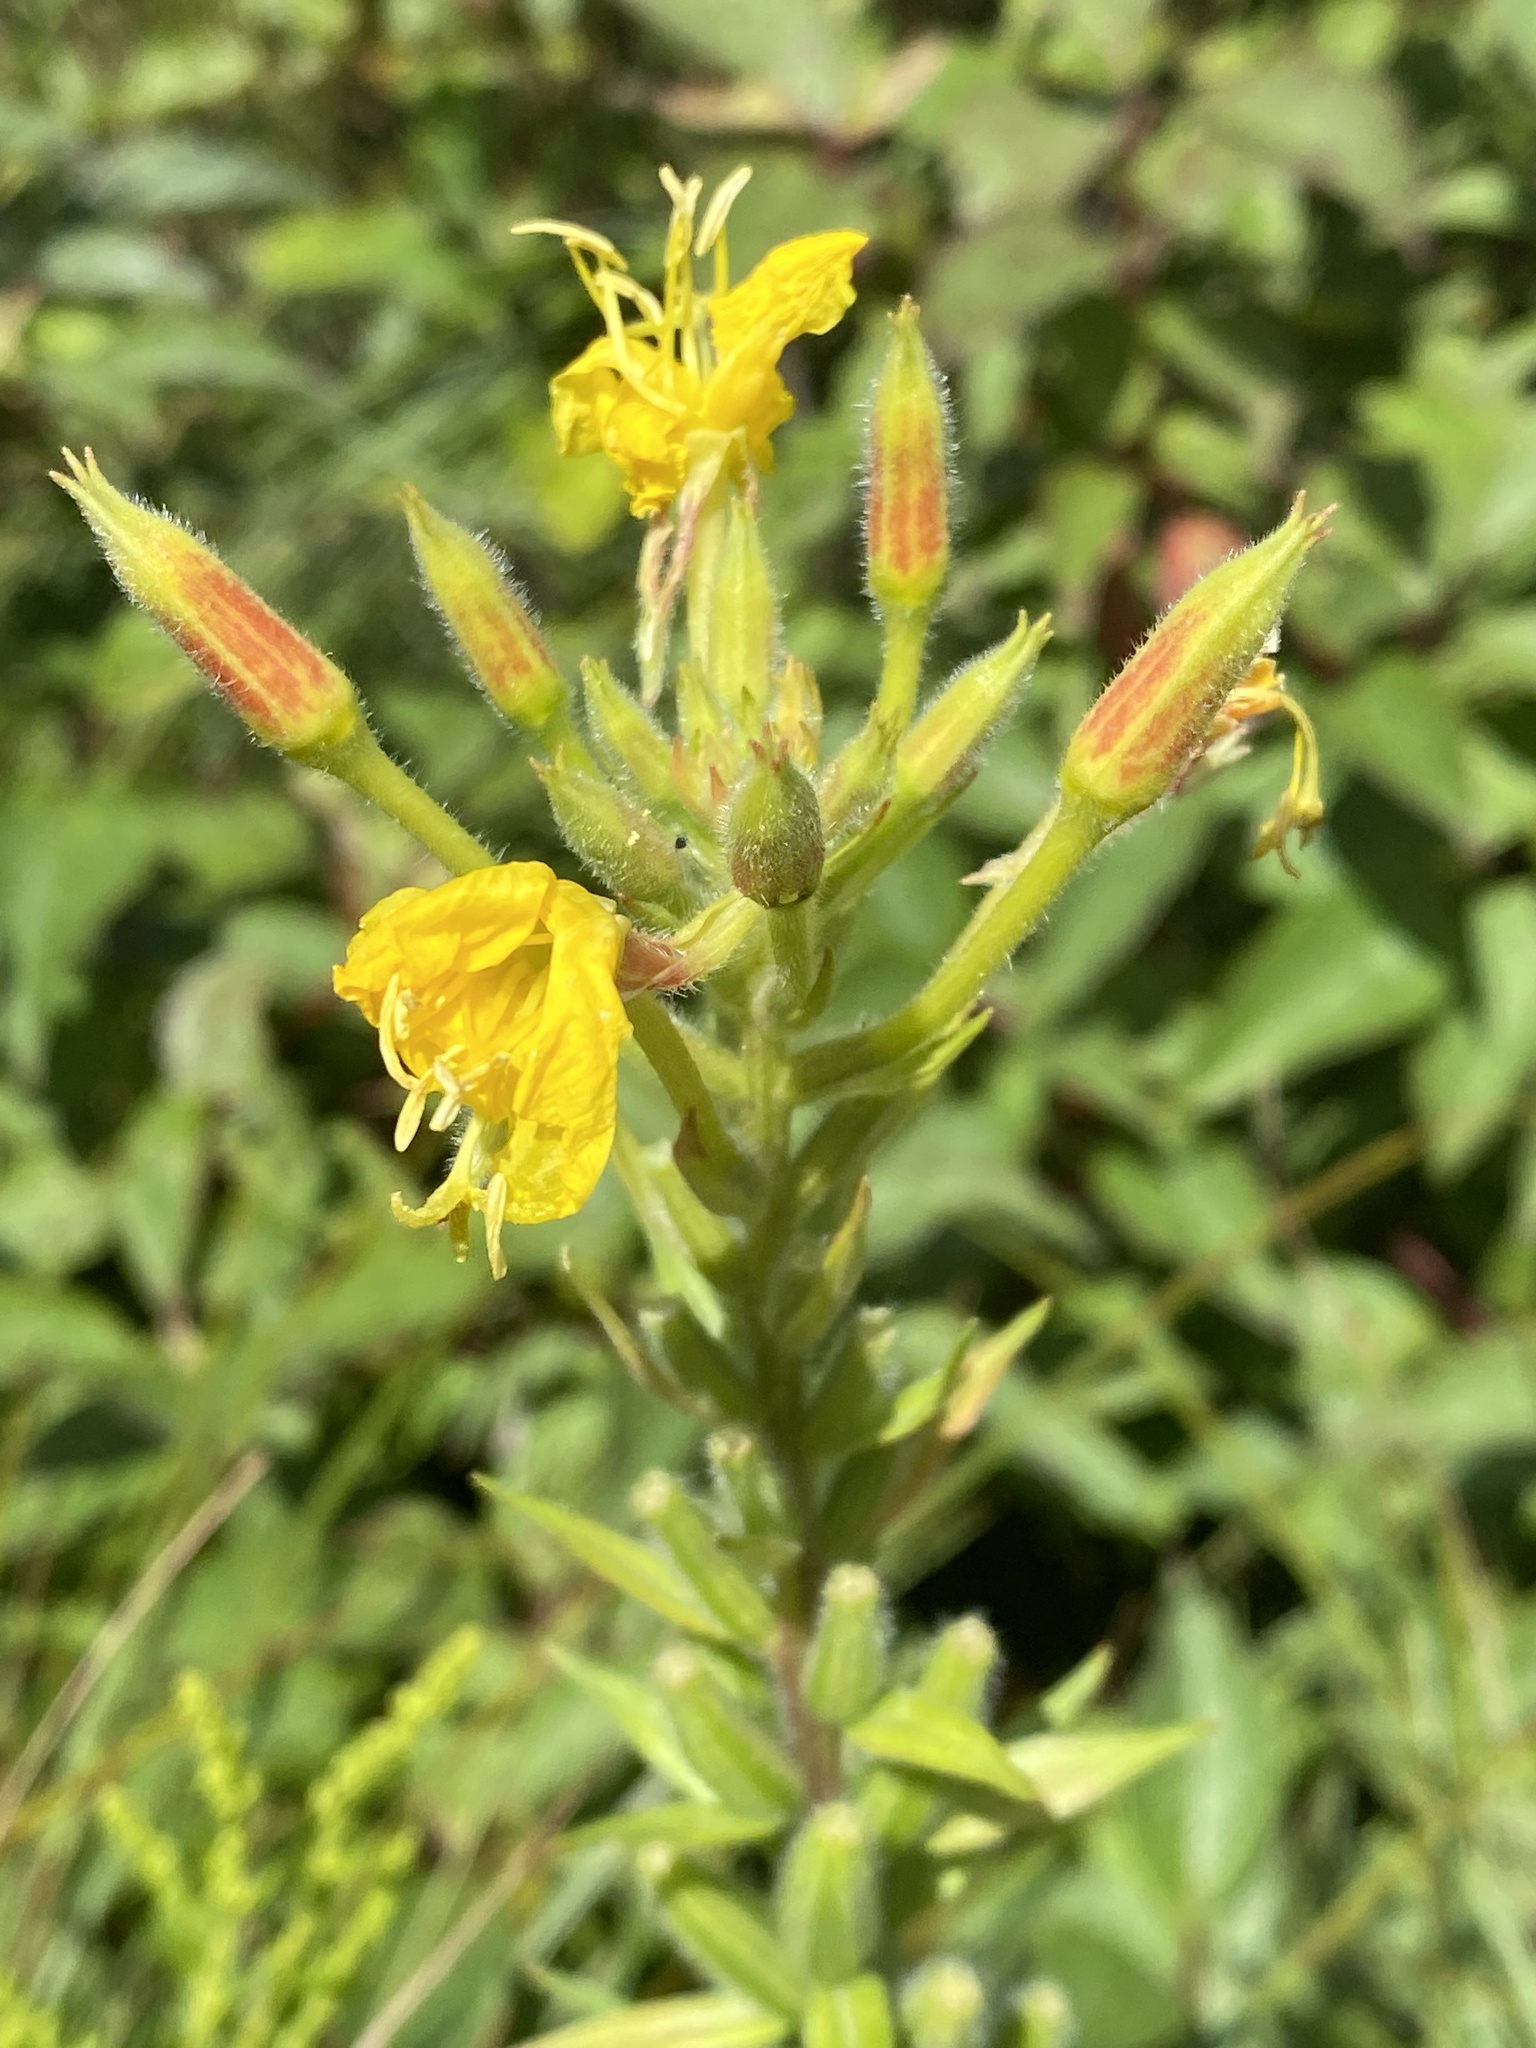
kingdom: Plantae
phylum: Tracheophyta
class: Magnoliopsida
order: Myrtales
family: Onagraceae
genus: Oenothera
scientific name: Oenothera biennis
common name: Common evening-primrose
